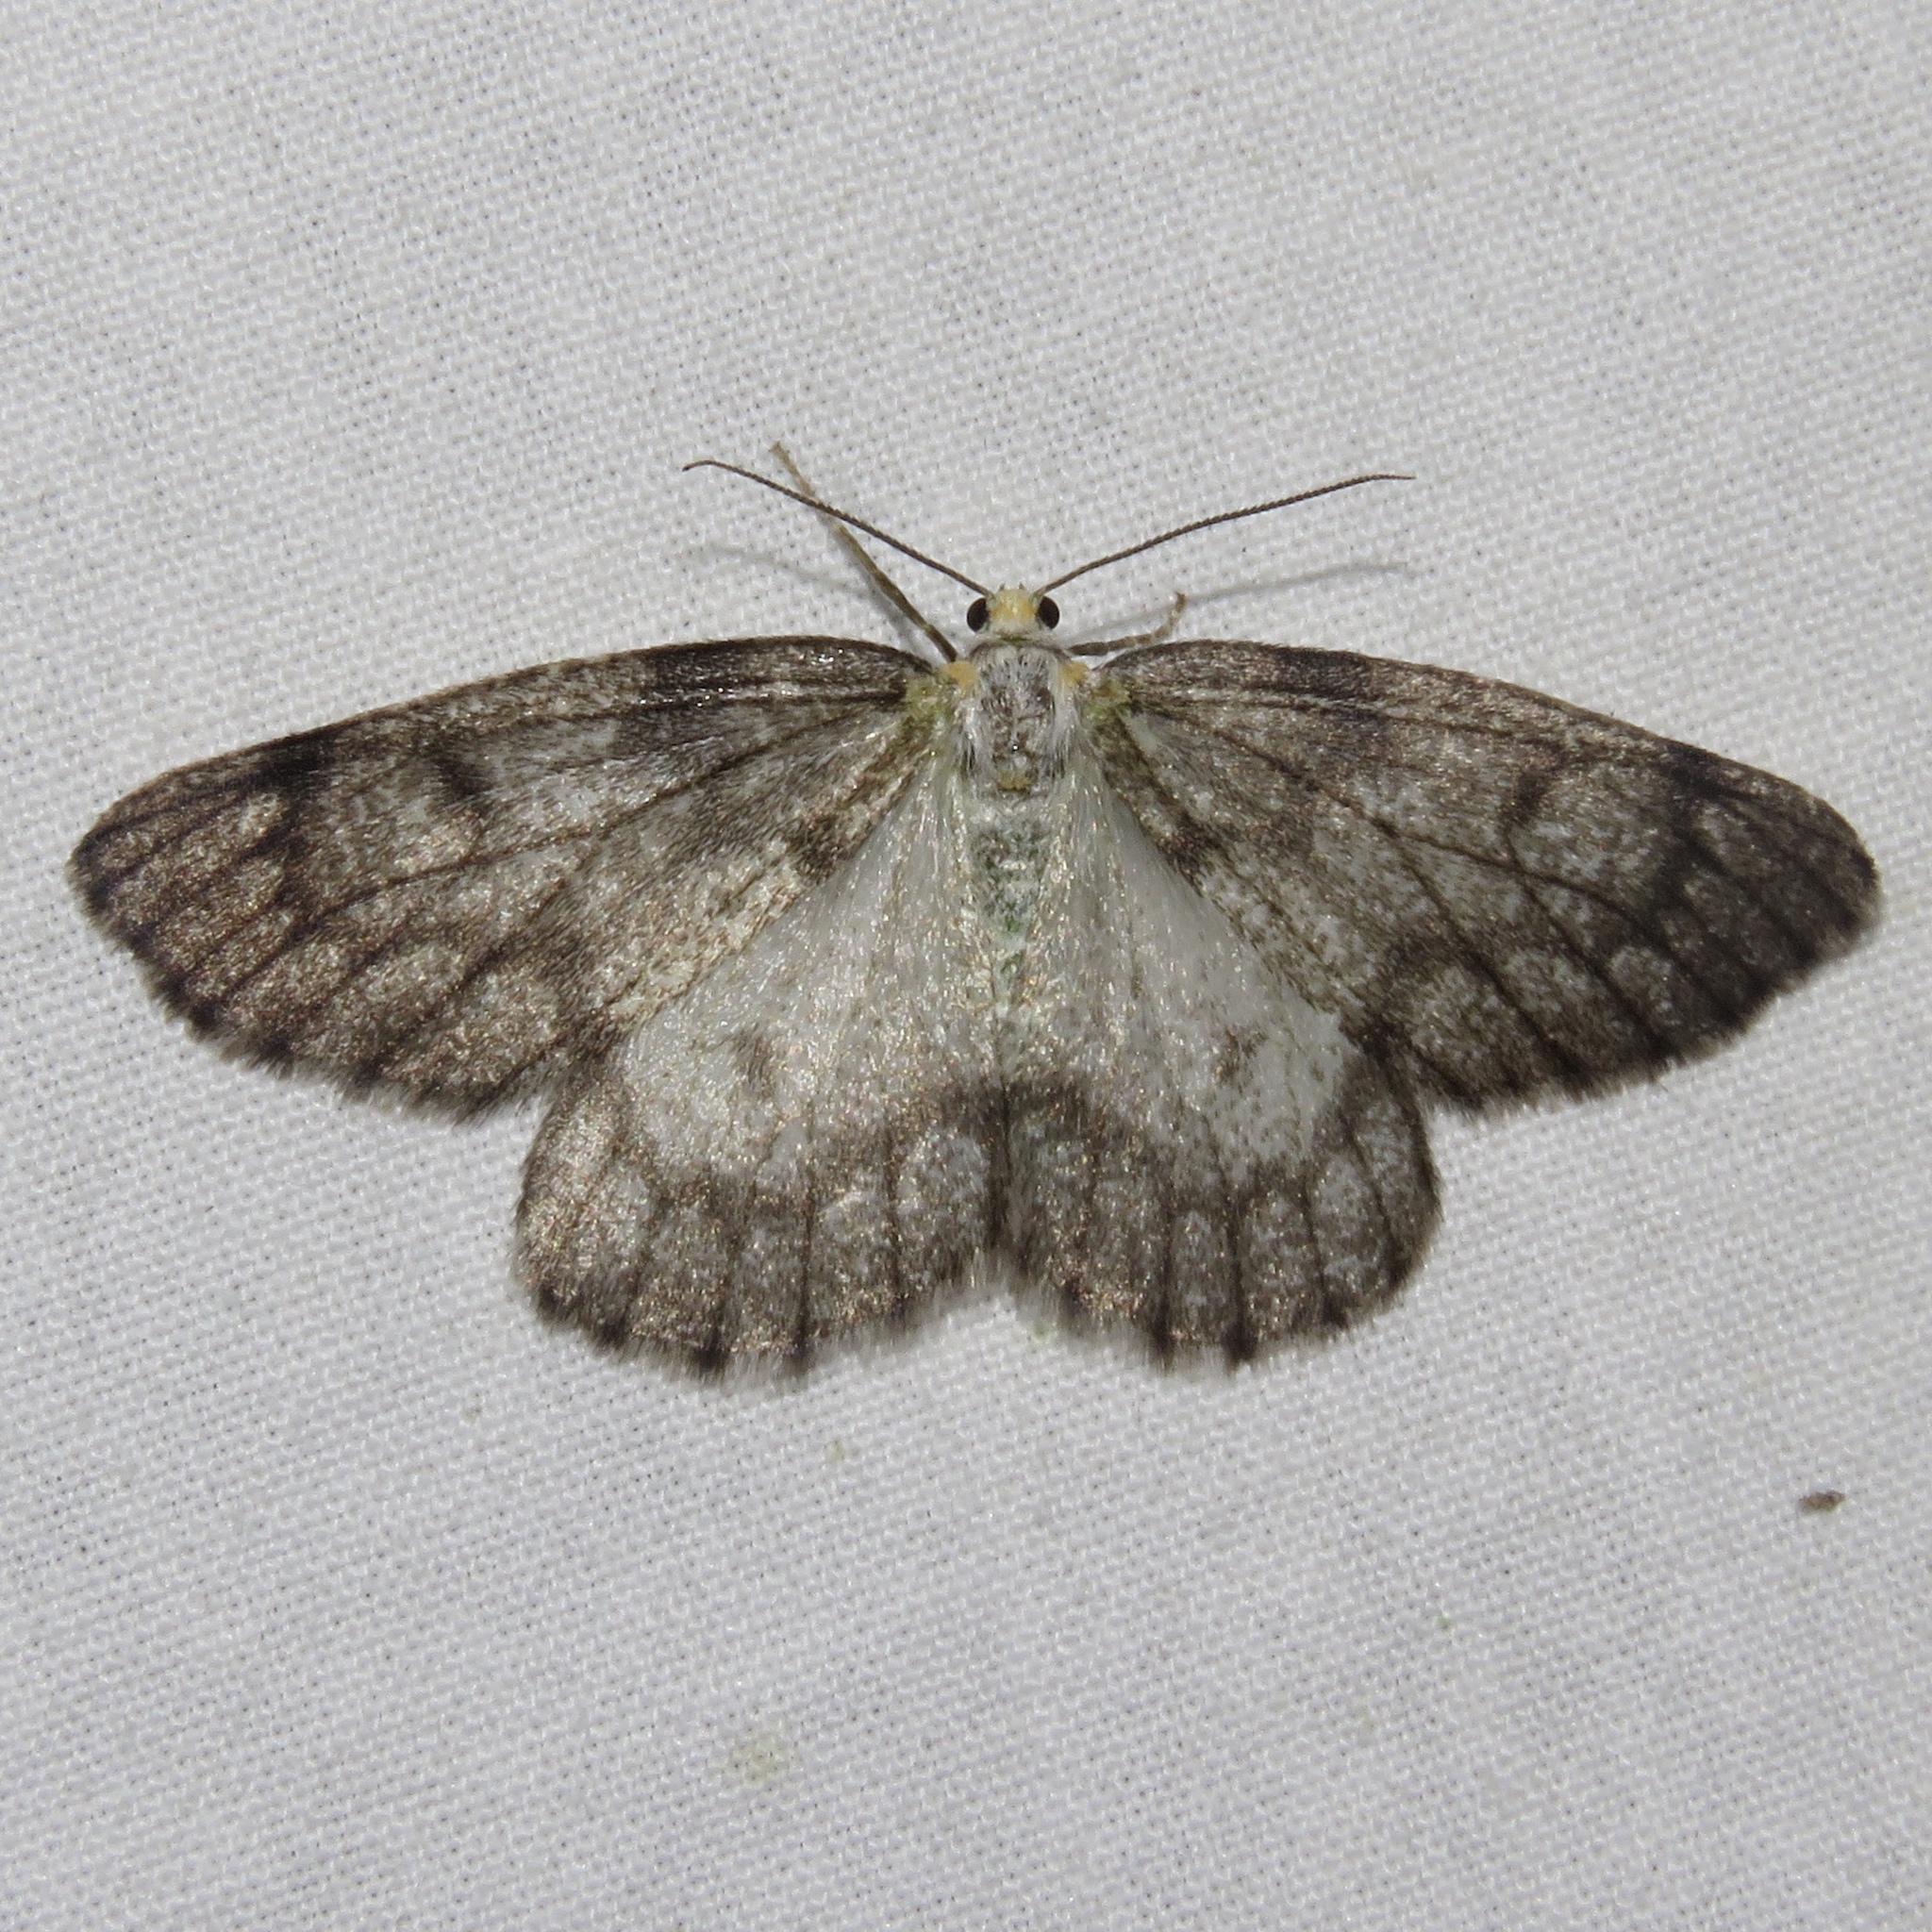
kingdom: Animalia
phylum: Arthropoda
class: Insecta
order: Lepidoptera
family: Geometridae
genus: Nepytia
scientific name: Nepytia canosaria
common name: False hemlock looper
